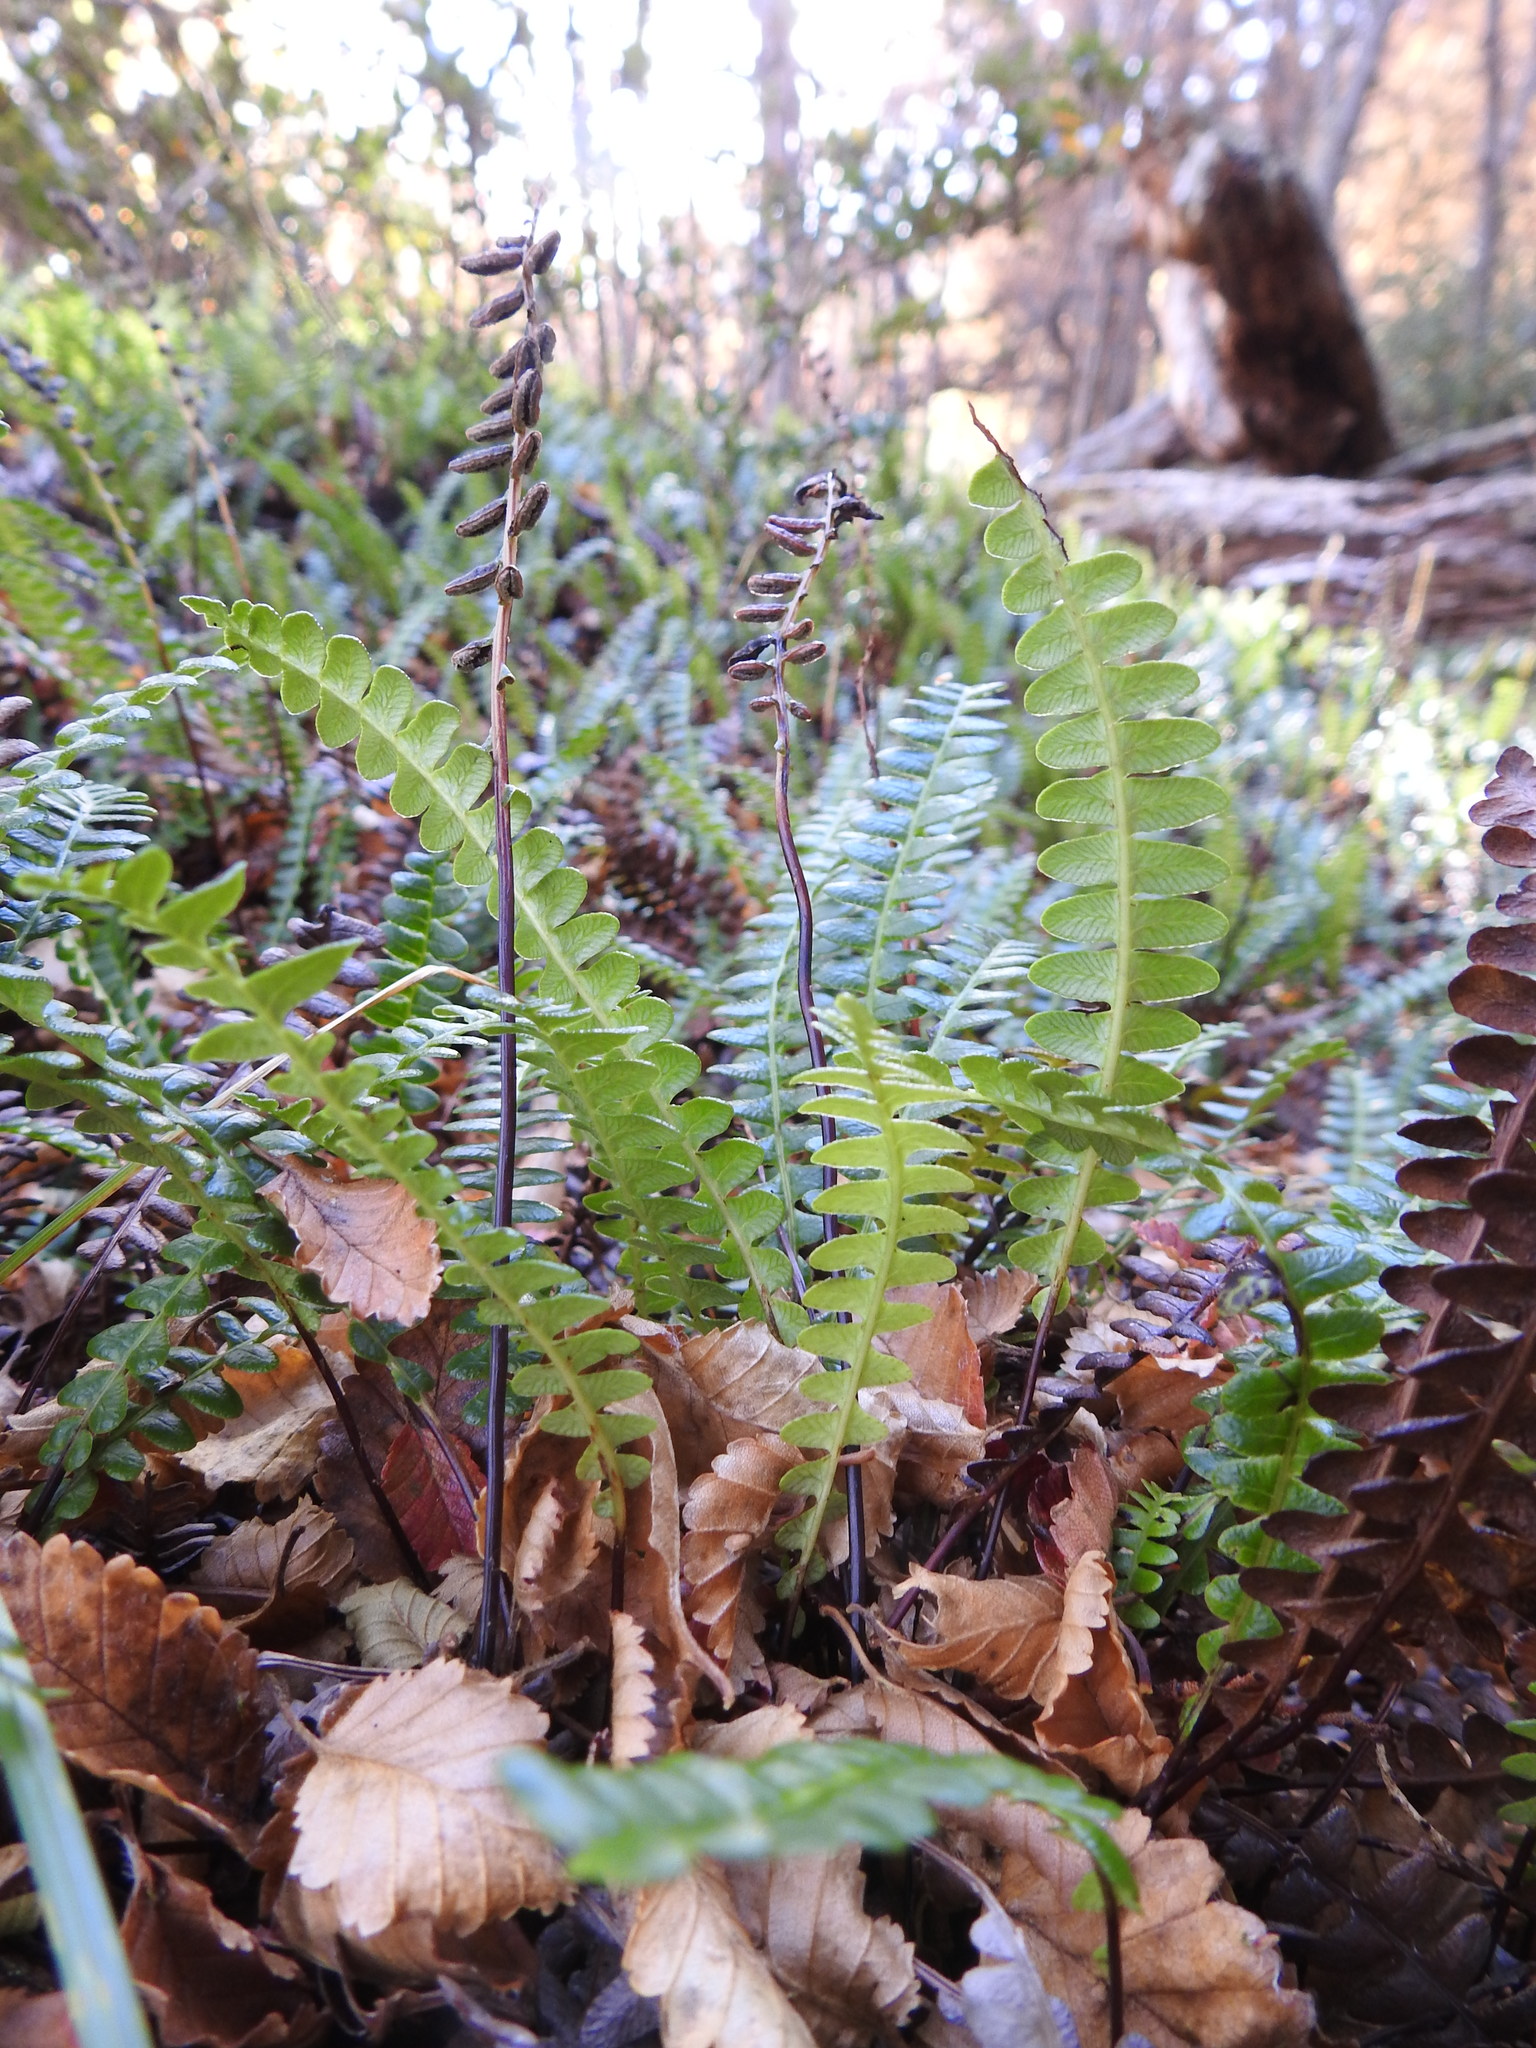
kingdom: Plantae
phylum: Tracheophyta
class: Polypodiopsida
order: Polypodiales
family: Blechnaceae
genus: Austroblechnum
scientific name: Austroblechnum penna-marina
